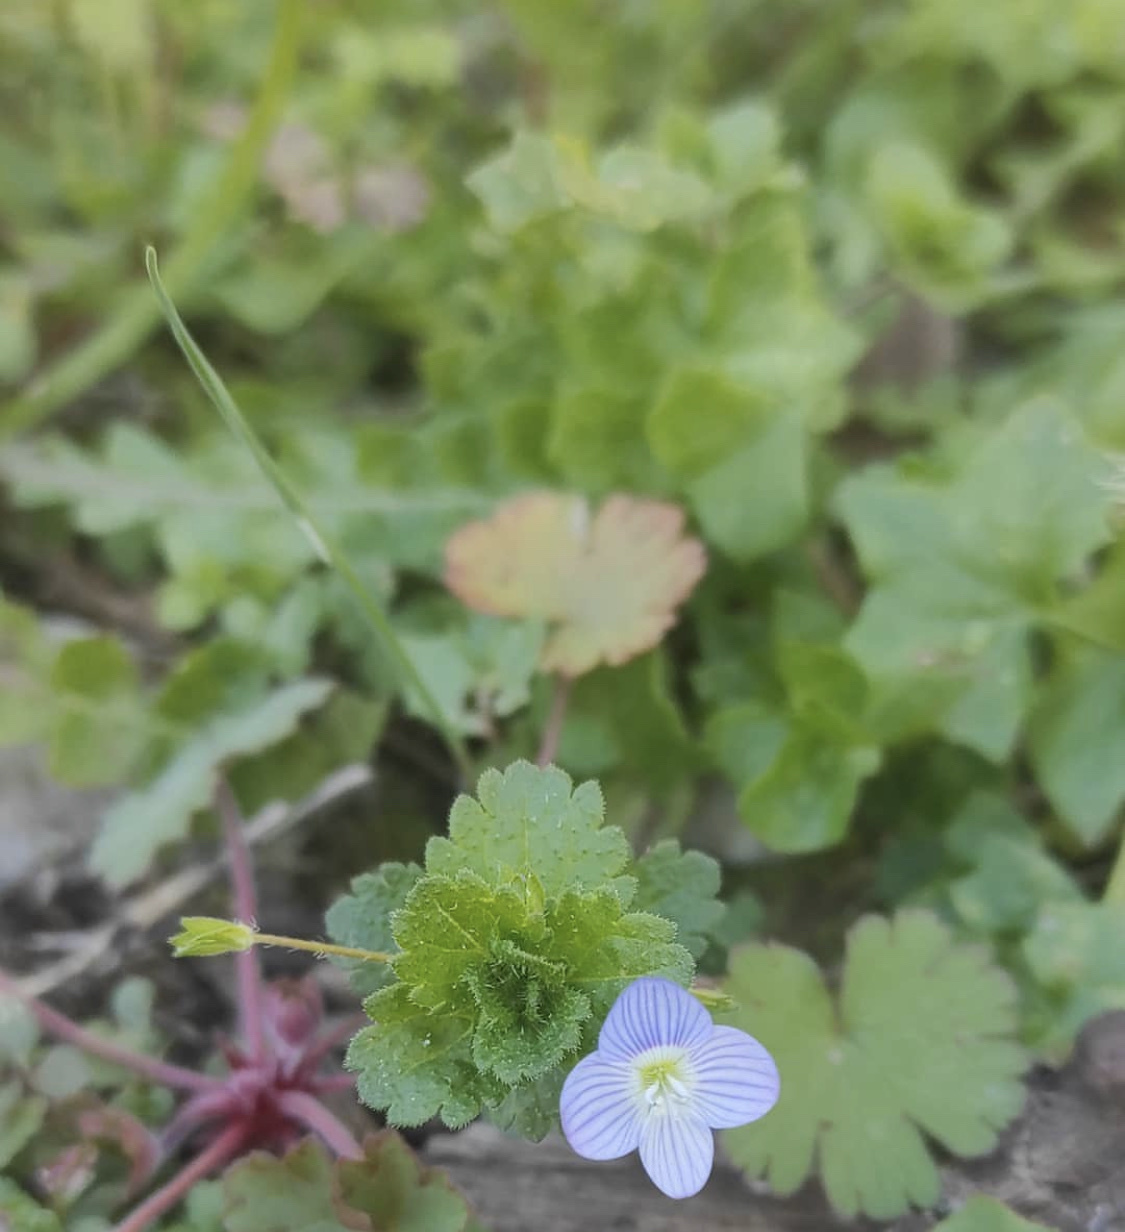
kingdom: Plantae
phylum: Tracheophyta
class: Magnoliopsida
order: Lamiales
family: Plantaginaceae
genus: Veronica
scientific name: Veronica persica
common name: Common field-speedwell
